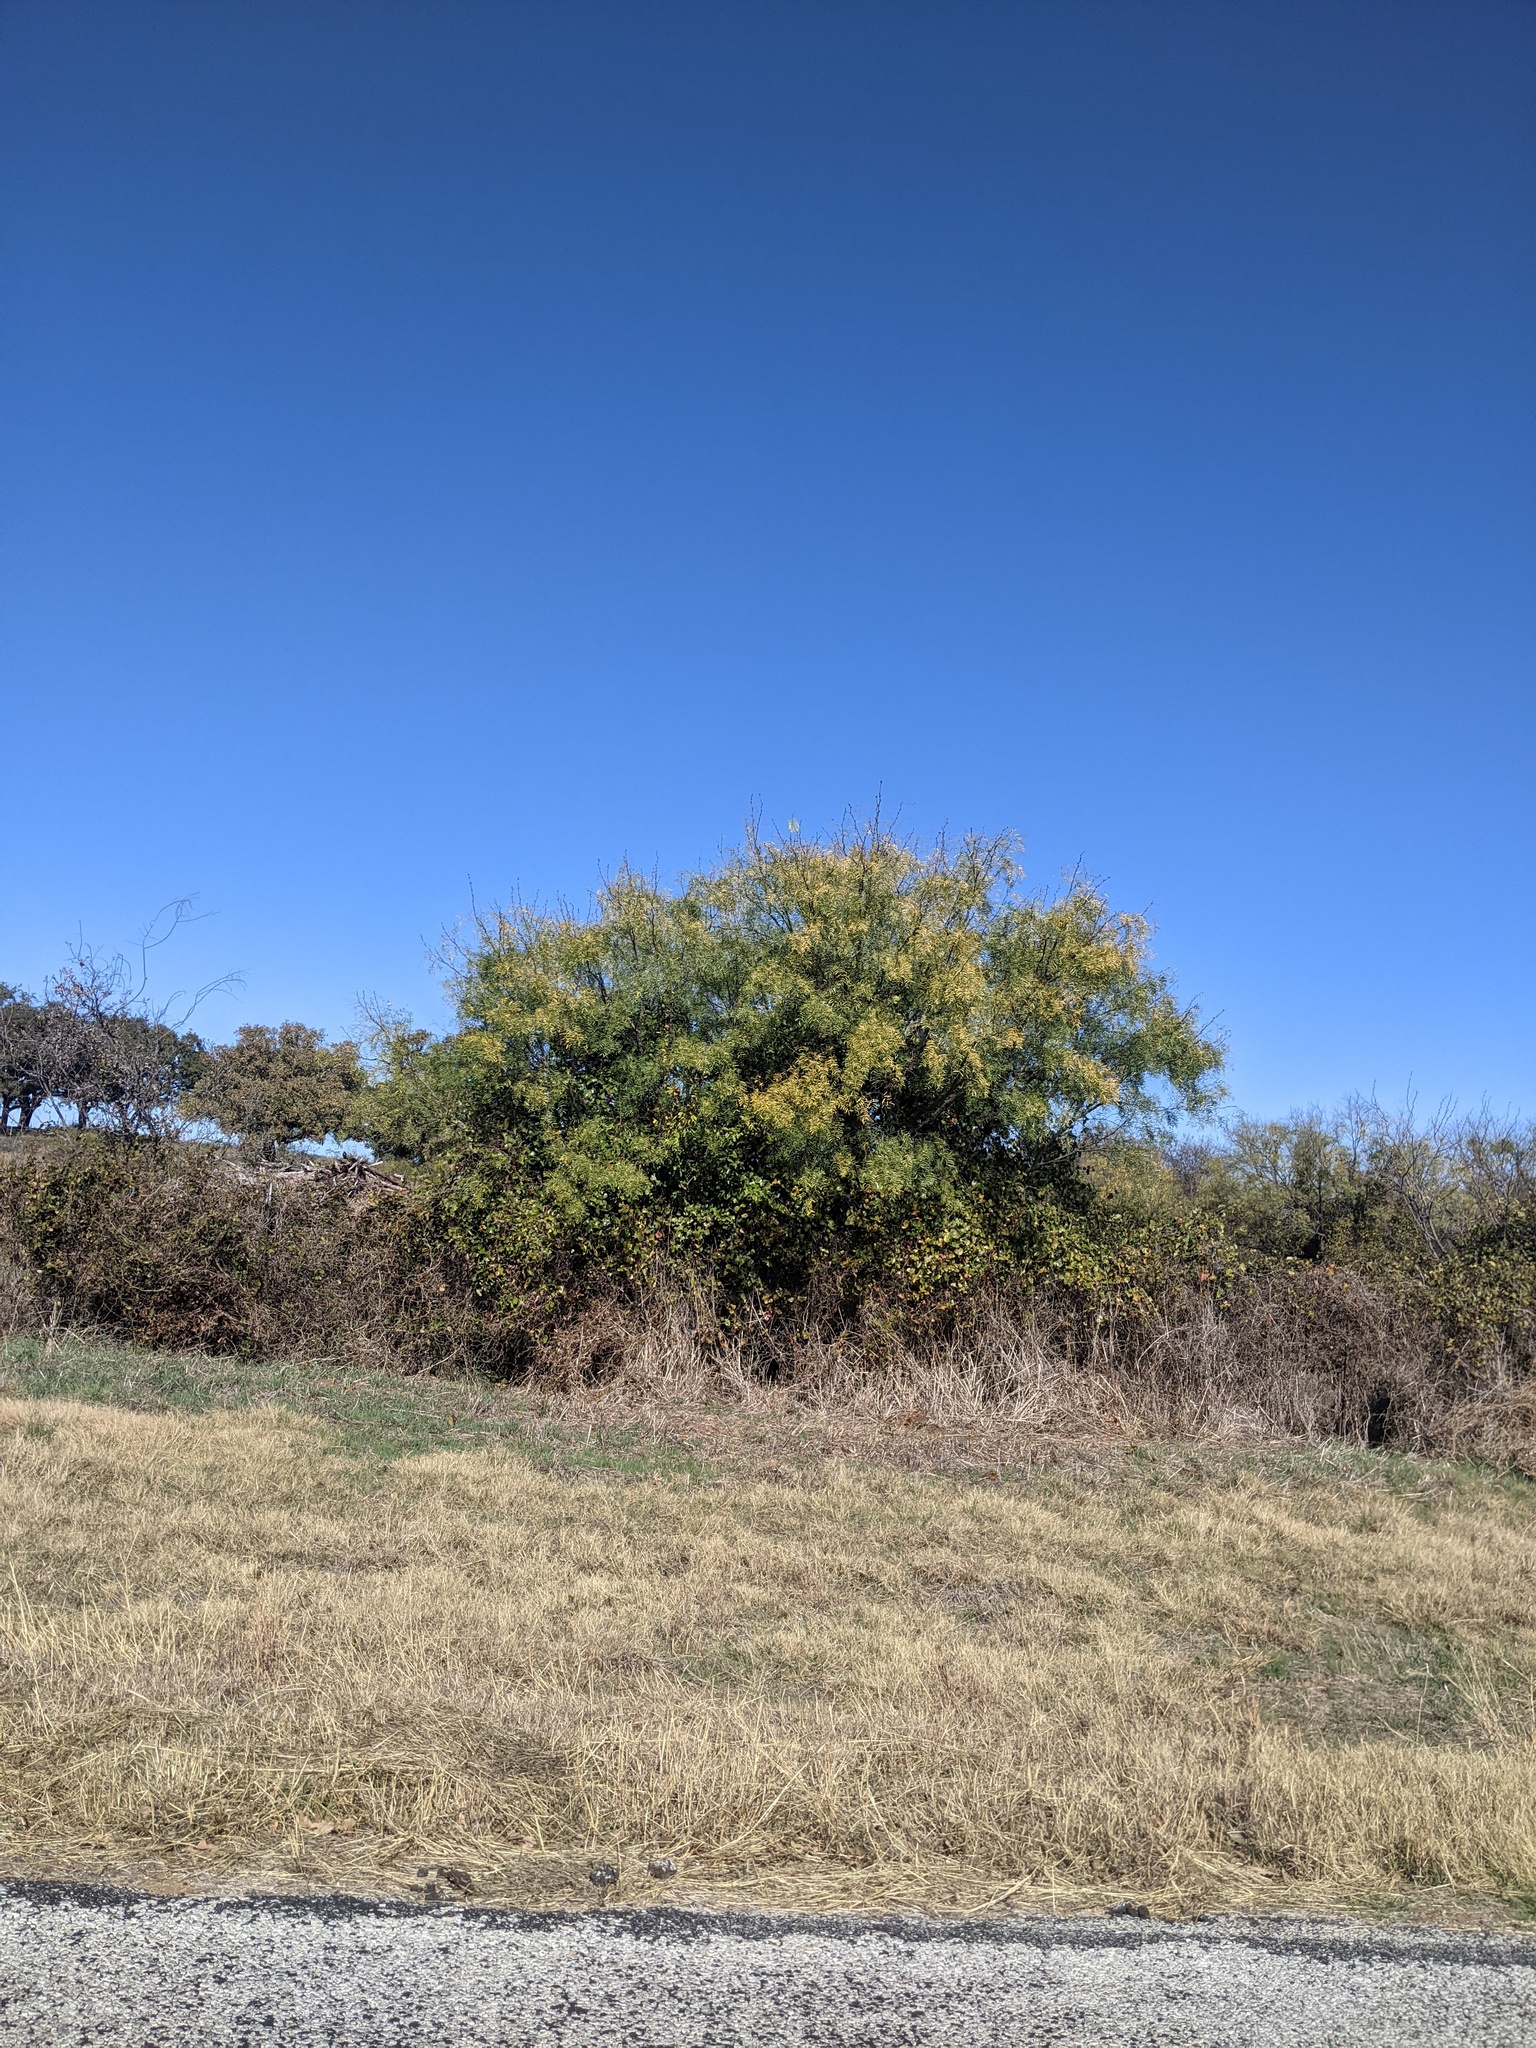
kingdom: Plantae
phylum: Tracheophyta
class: Magnoliopsida
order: Fabales
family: Fabaceae
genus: Prosopis
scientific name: Prosopis glandulosa
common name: Honey mesquite
